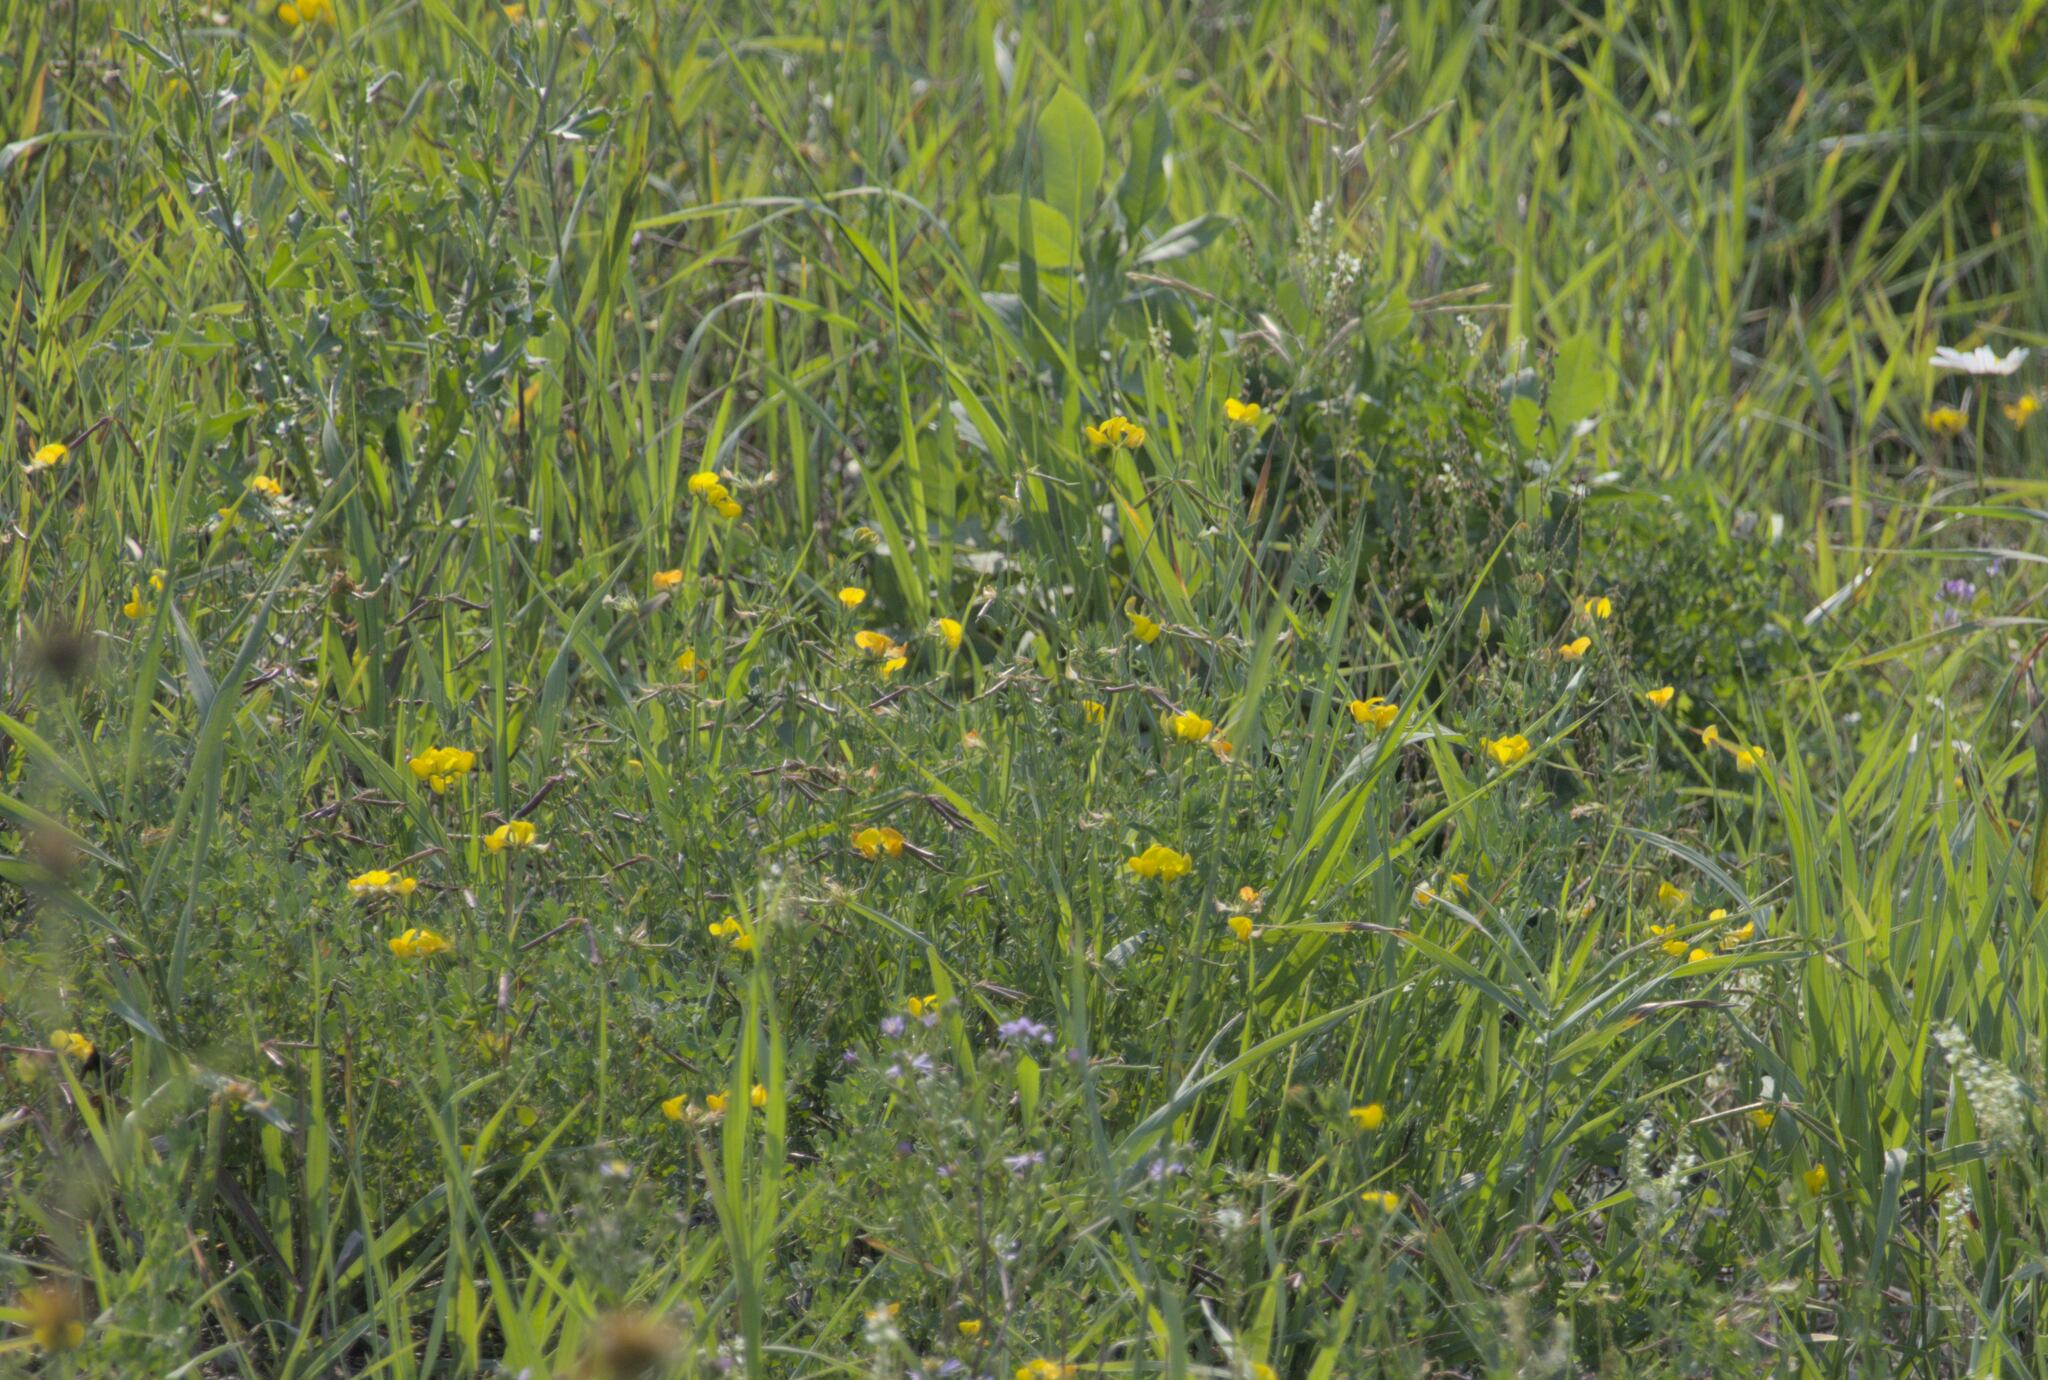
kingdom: Plantae
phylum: Tracheophyta
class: Magnoliopsida
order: Fabales
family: Fabaceae
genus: Lotus
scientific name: Lotus corniculatus
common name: Common bird's-foot-trefoil
